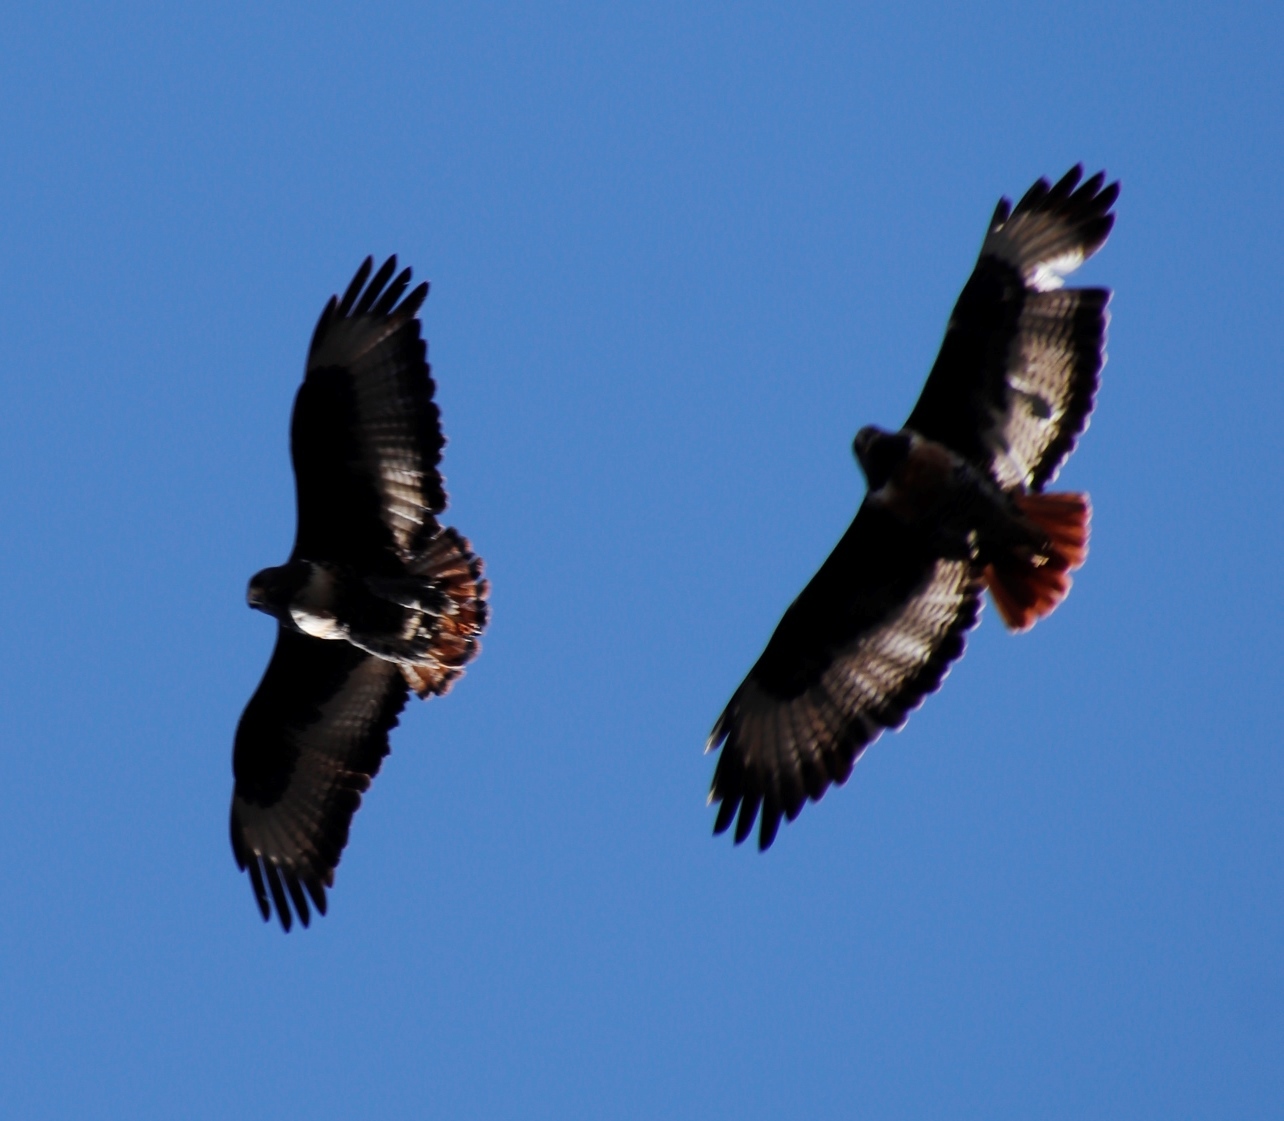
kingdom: Animalia
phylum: Chordata
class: Aves
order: Accipitriformes
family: Accipitridae
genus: Buteo
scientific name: Buteo rufofuscus
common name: Jackal buzzard
